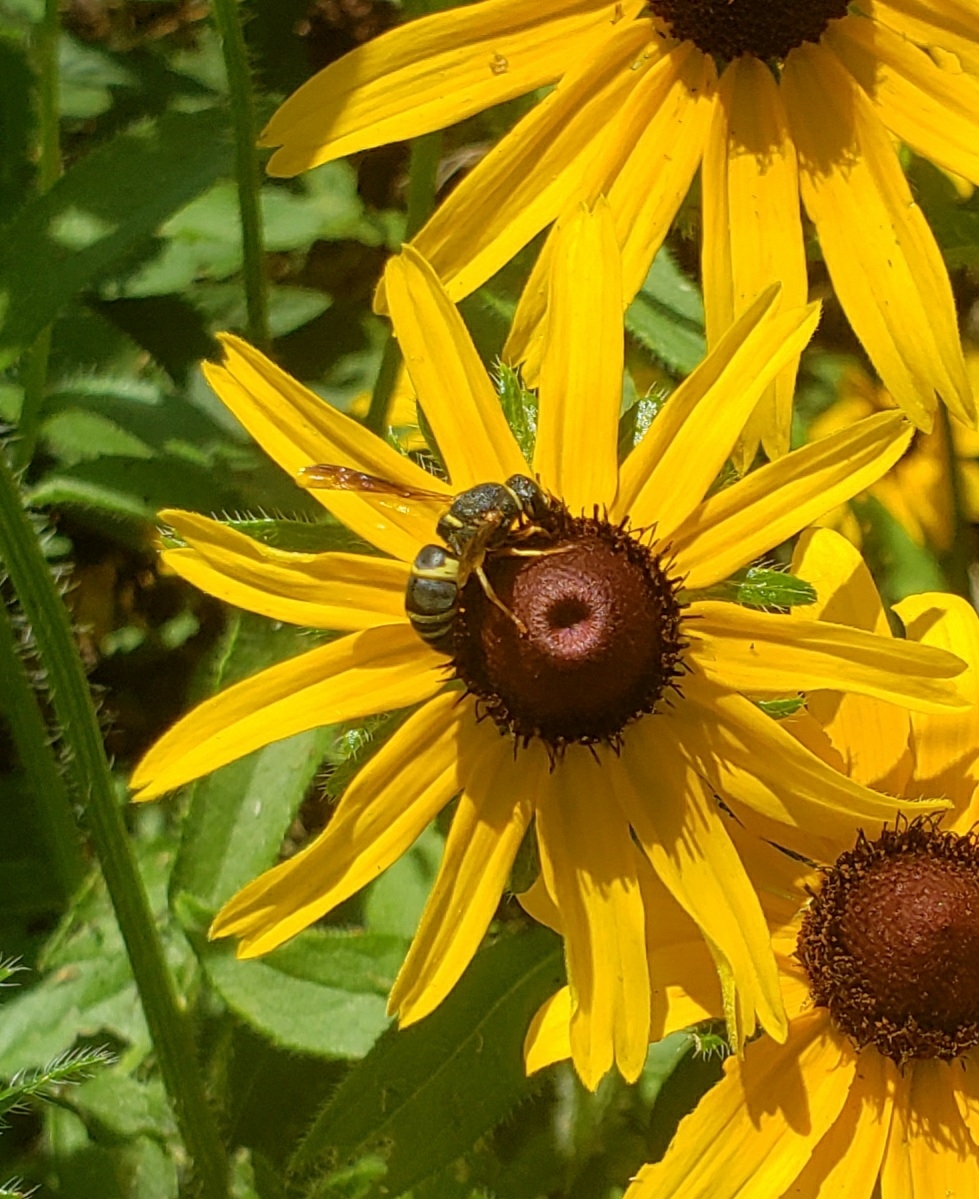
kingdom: Animalia
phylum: Arthropoda
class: Insecta
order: Hymenoptera
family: Eumenidae
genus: Euodynerus
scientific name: Euodynerus hidalgo
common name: Wasp
